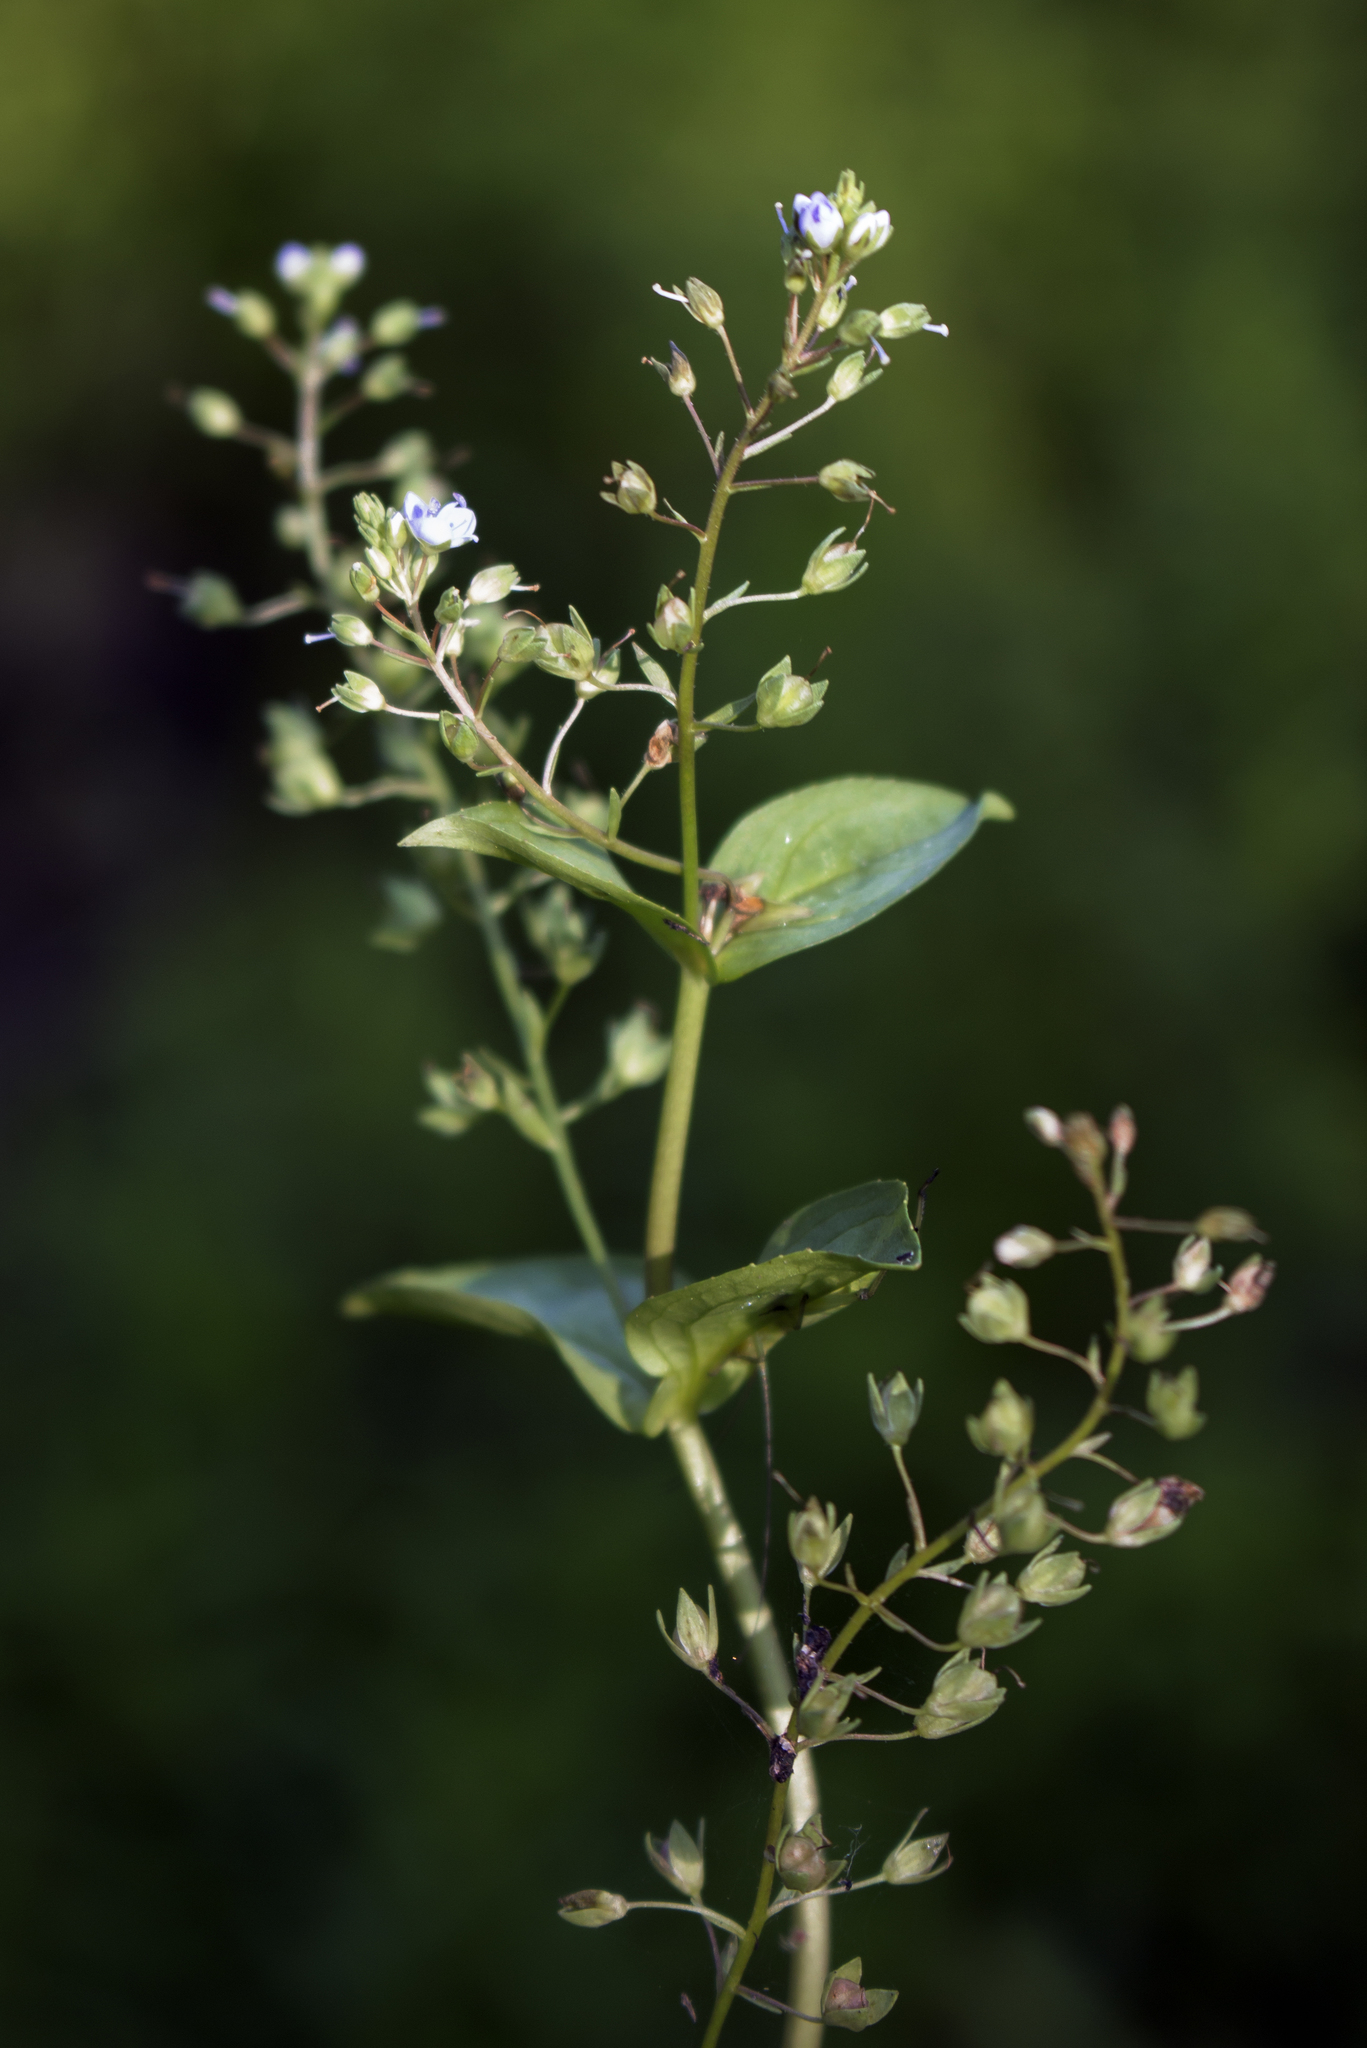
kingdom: Plantae
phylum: Tracheophyta
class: Magnoliopsida
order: Lamiales
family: Plantaginaceae
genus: Veronica
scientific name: Veronica anagallis-aquatica
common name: Water speedwell
